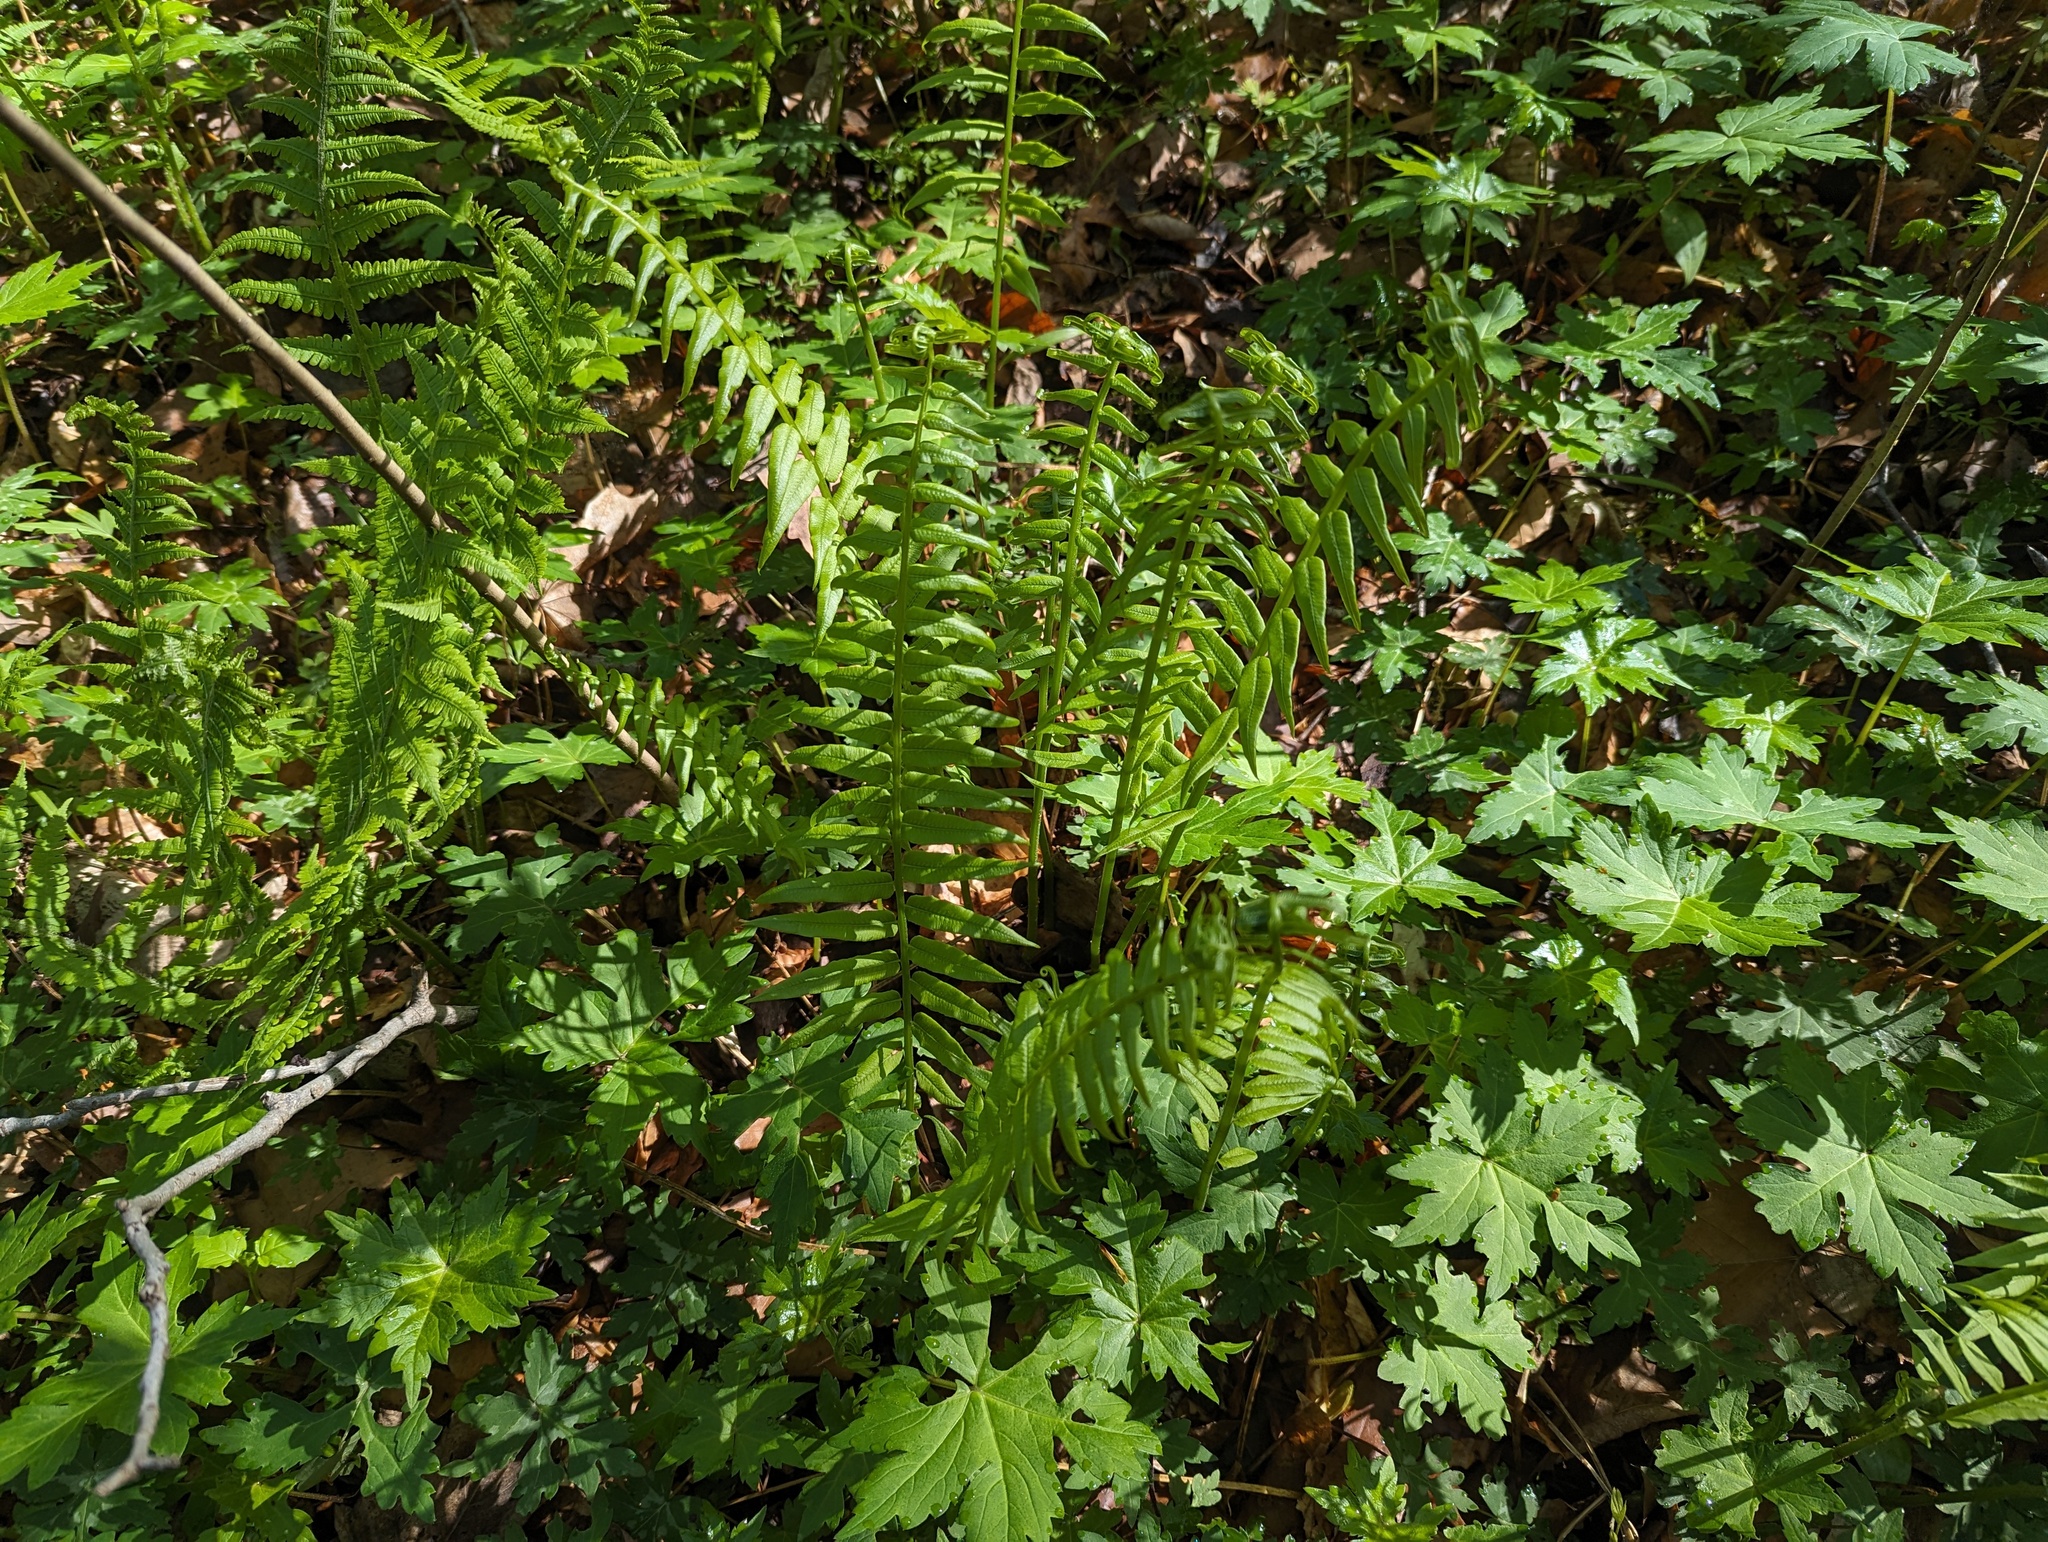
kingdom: Plantae
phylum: Tracheophyta
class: Polypodiopsida
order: Polypodiales
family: Diplaziopsidaceae
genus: Homalosorus
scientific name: Homalosorus pycnocarpos
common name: Glade fern
